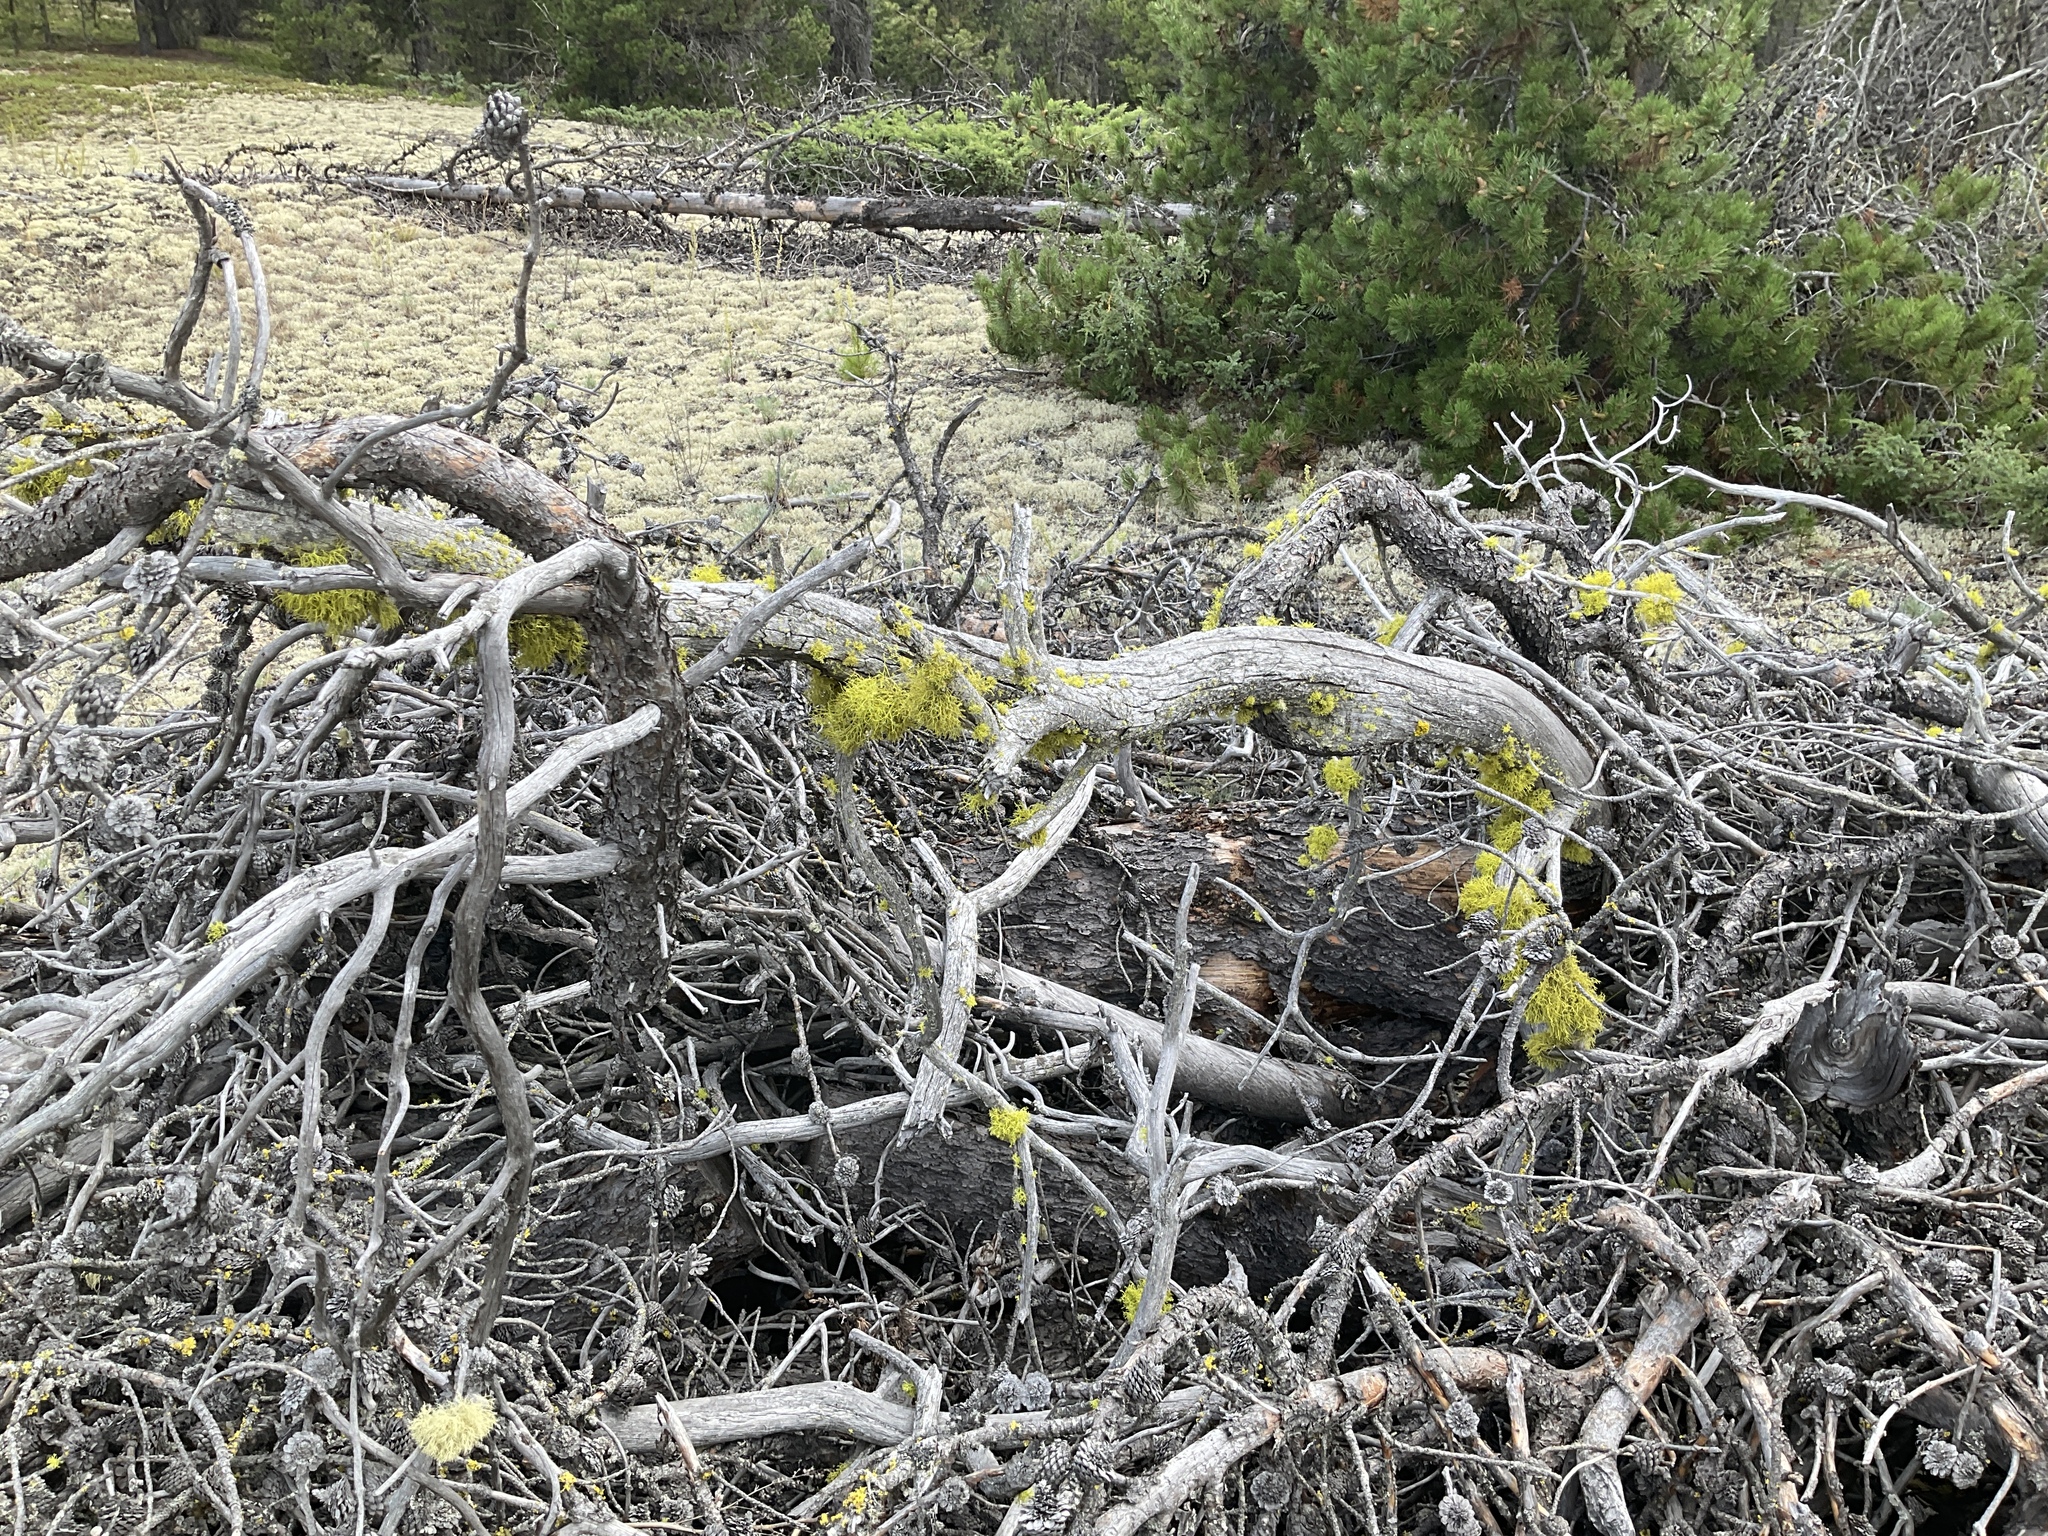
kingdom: Fungi
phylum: Ascomycota
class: Lecanoromycetes
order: Lecanorales
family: Parmeliaceae
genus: Letharia
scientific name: Letharia vulpina
